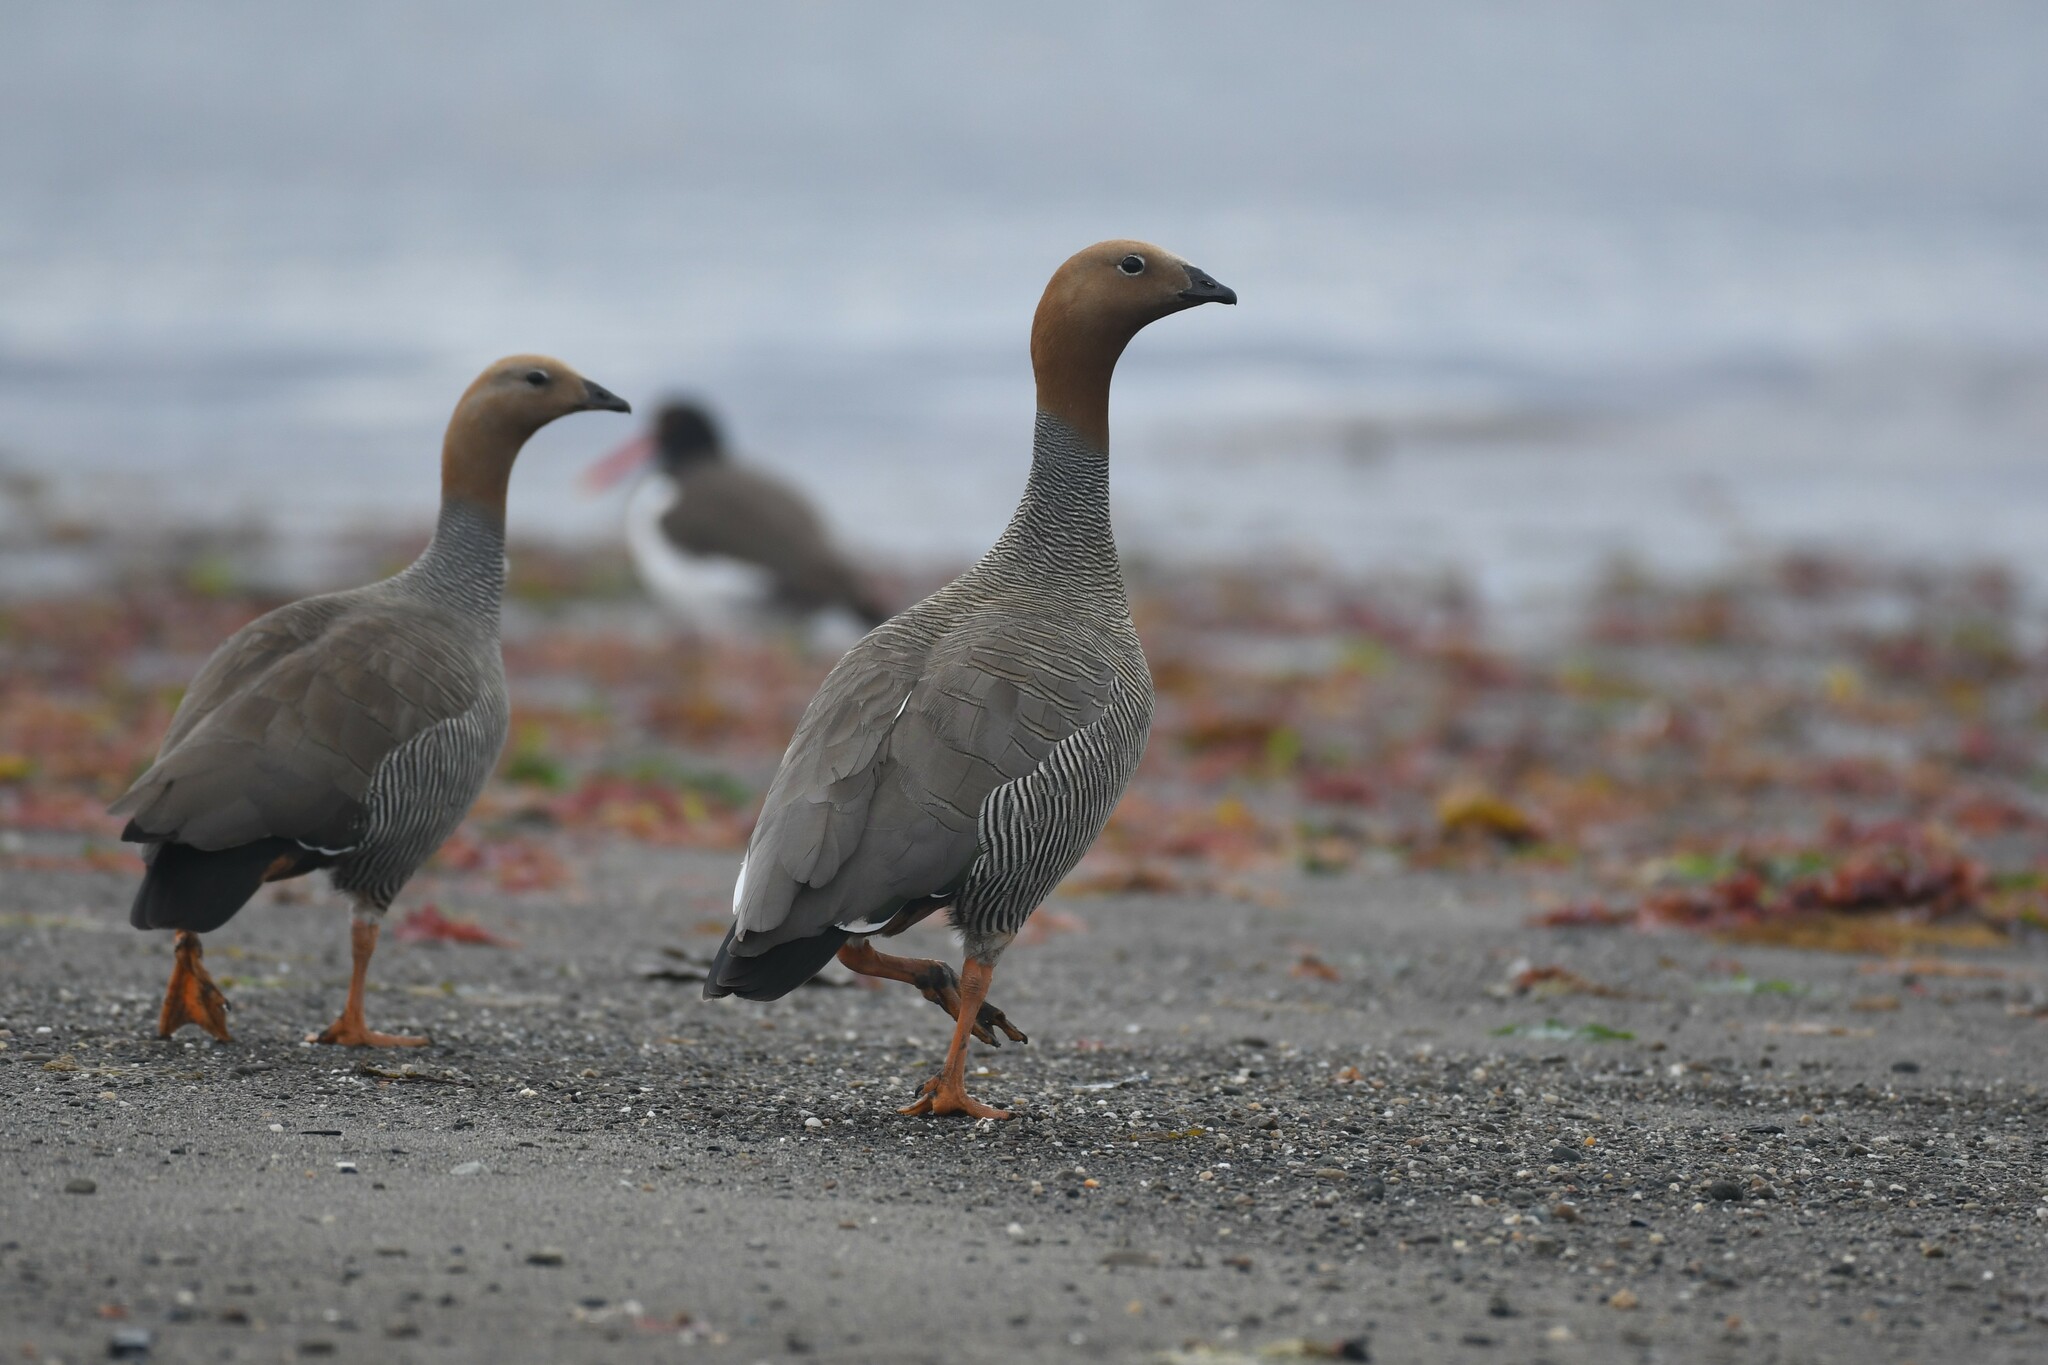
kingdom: Animalia
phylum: Chordata
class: Aves
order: Anseriformes
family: Anatidae
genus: Chloephaga
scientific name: Chloephaga rubidiceps
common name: Ruddy-headed goose
